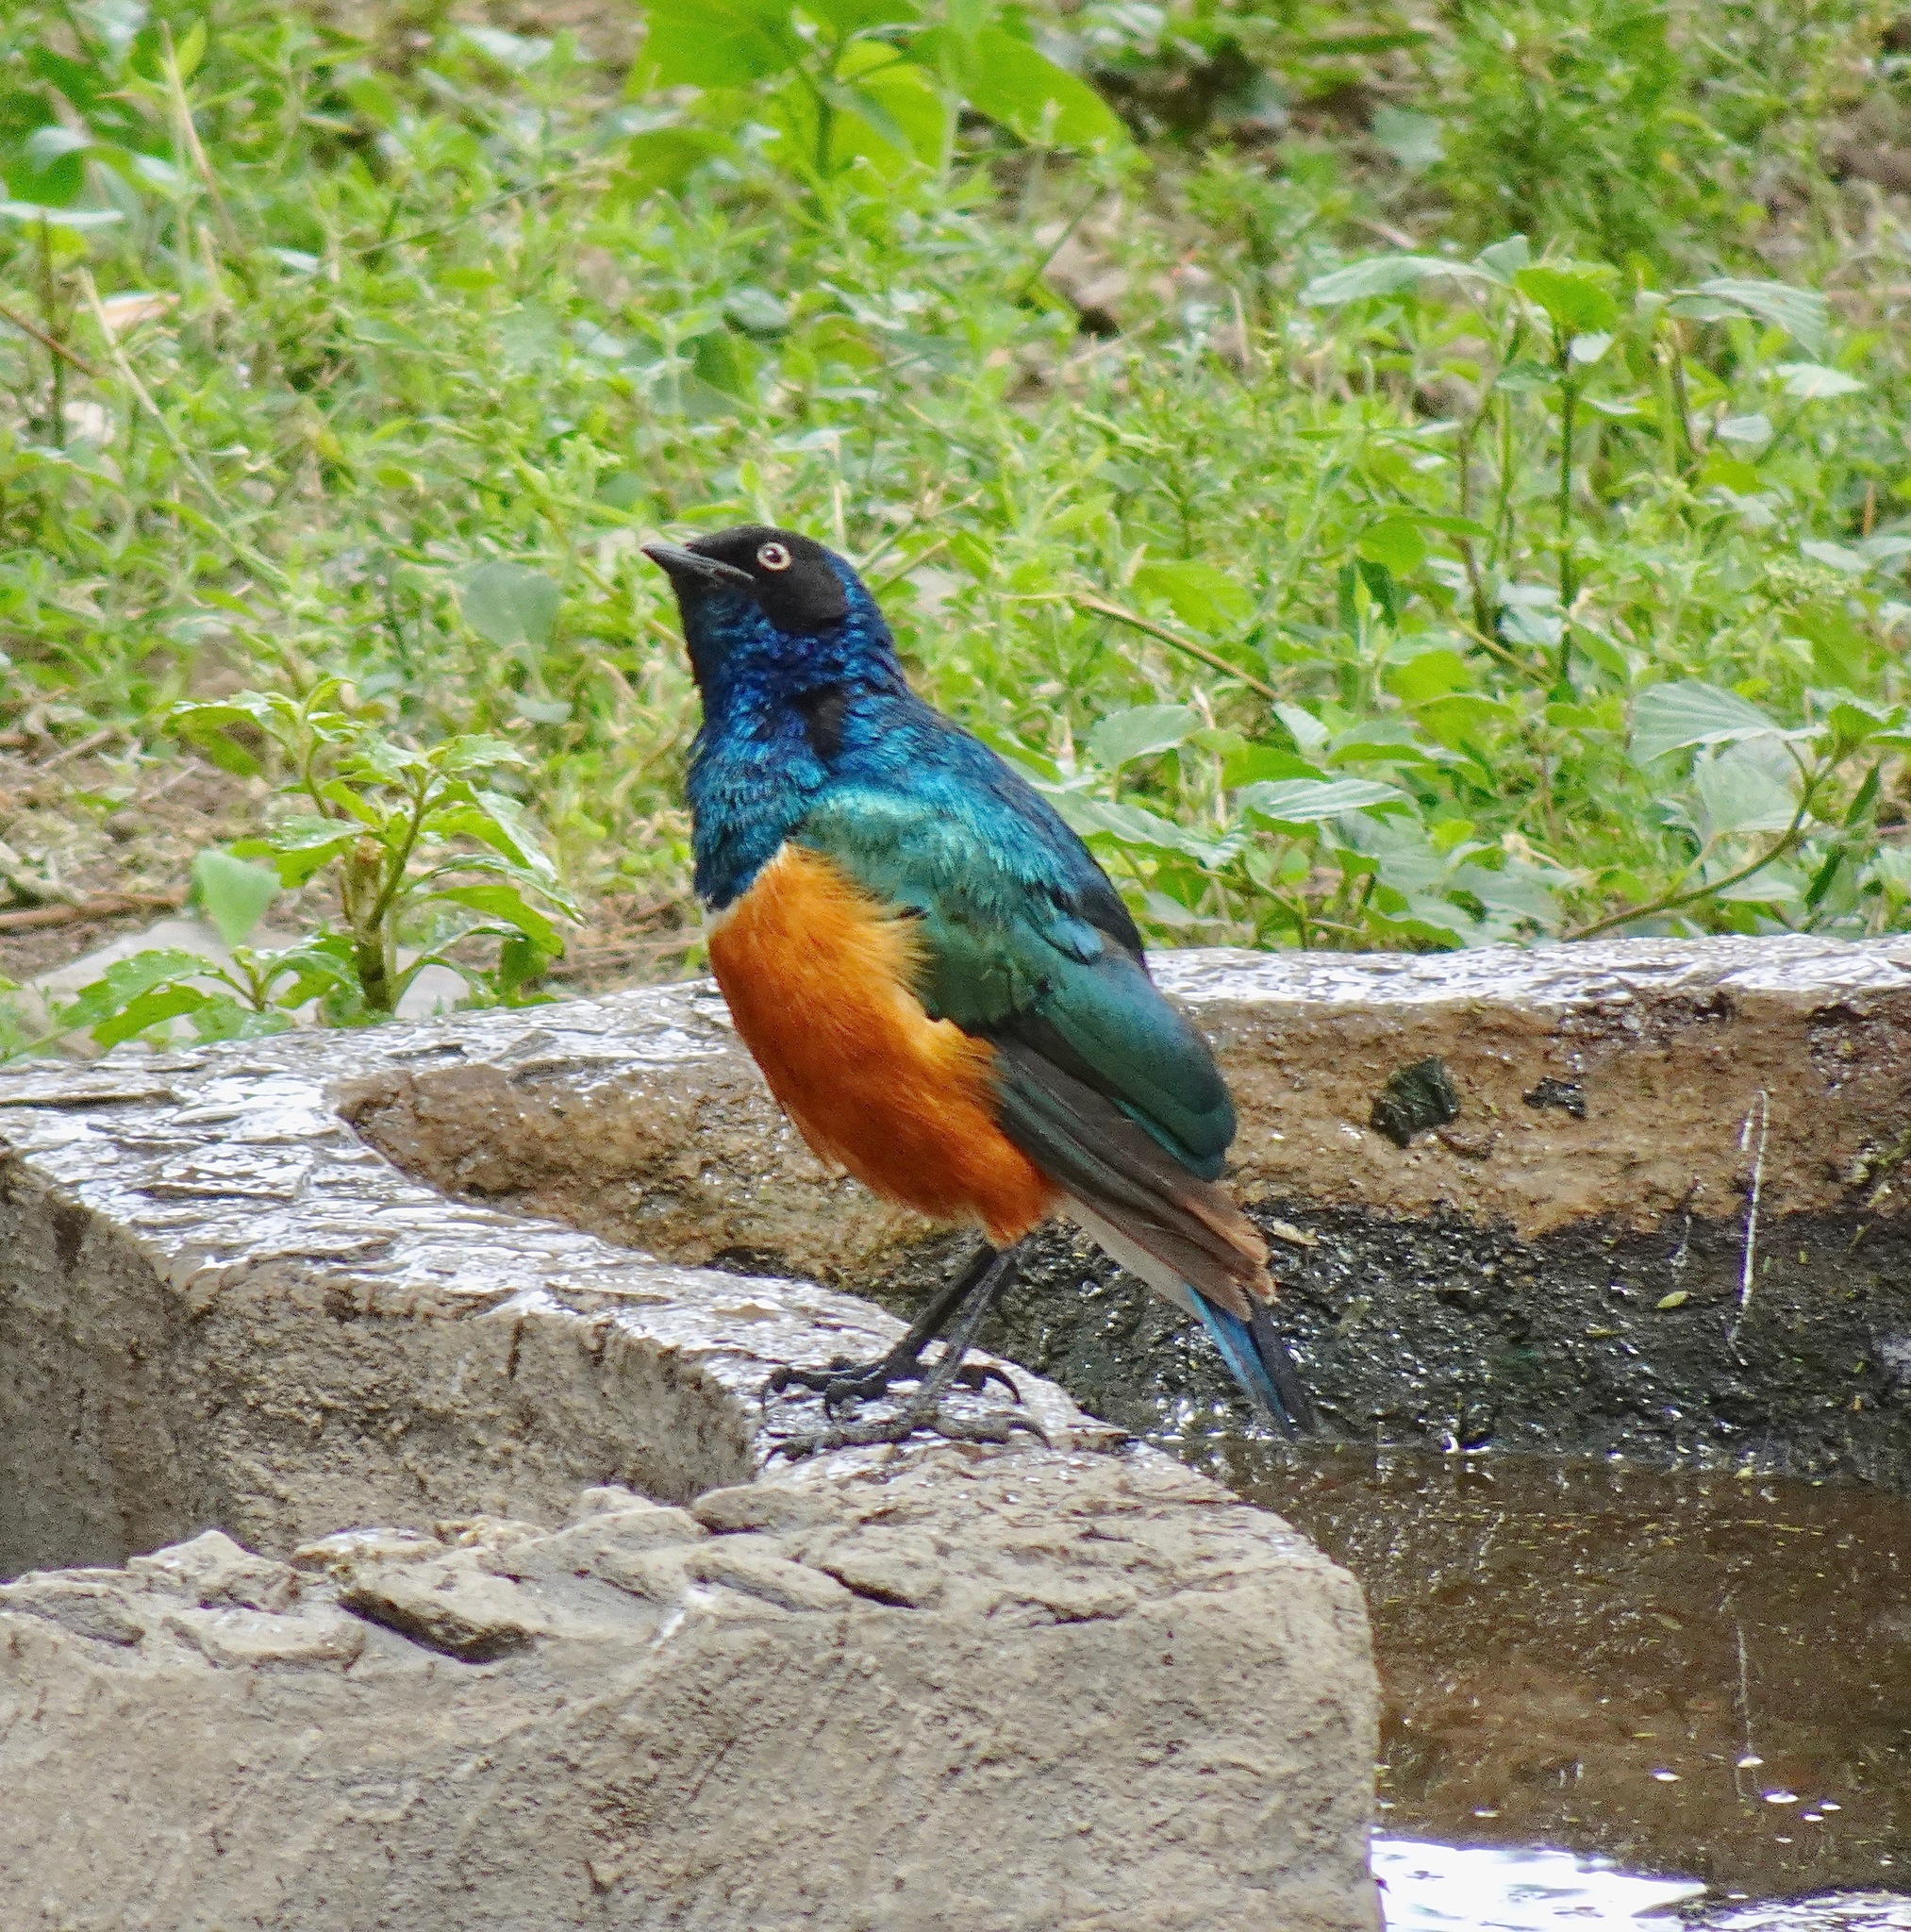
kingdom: Animalia
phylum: Chordata
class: Aves
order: Passeriformes
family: Sturnidae
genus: Lamprotornis
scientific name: Lamprotornis superbus
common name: Superb starling
